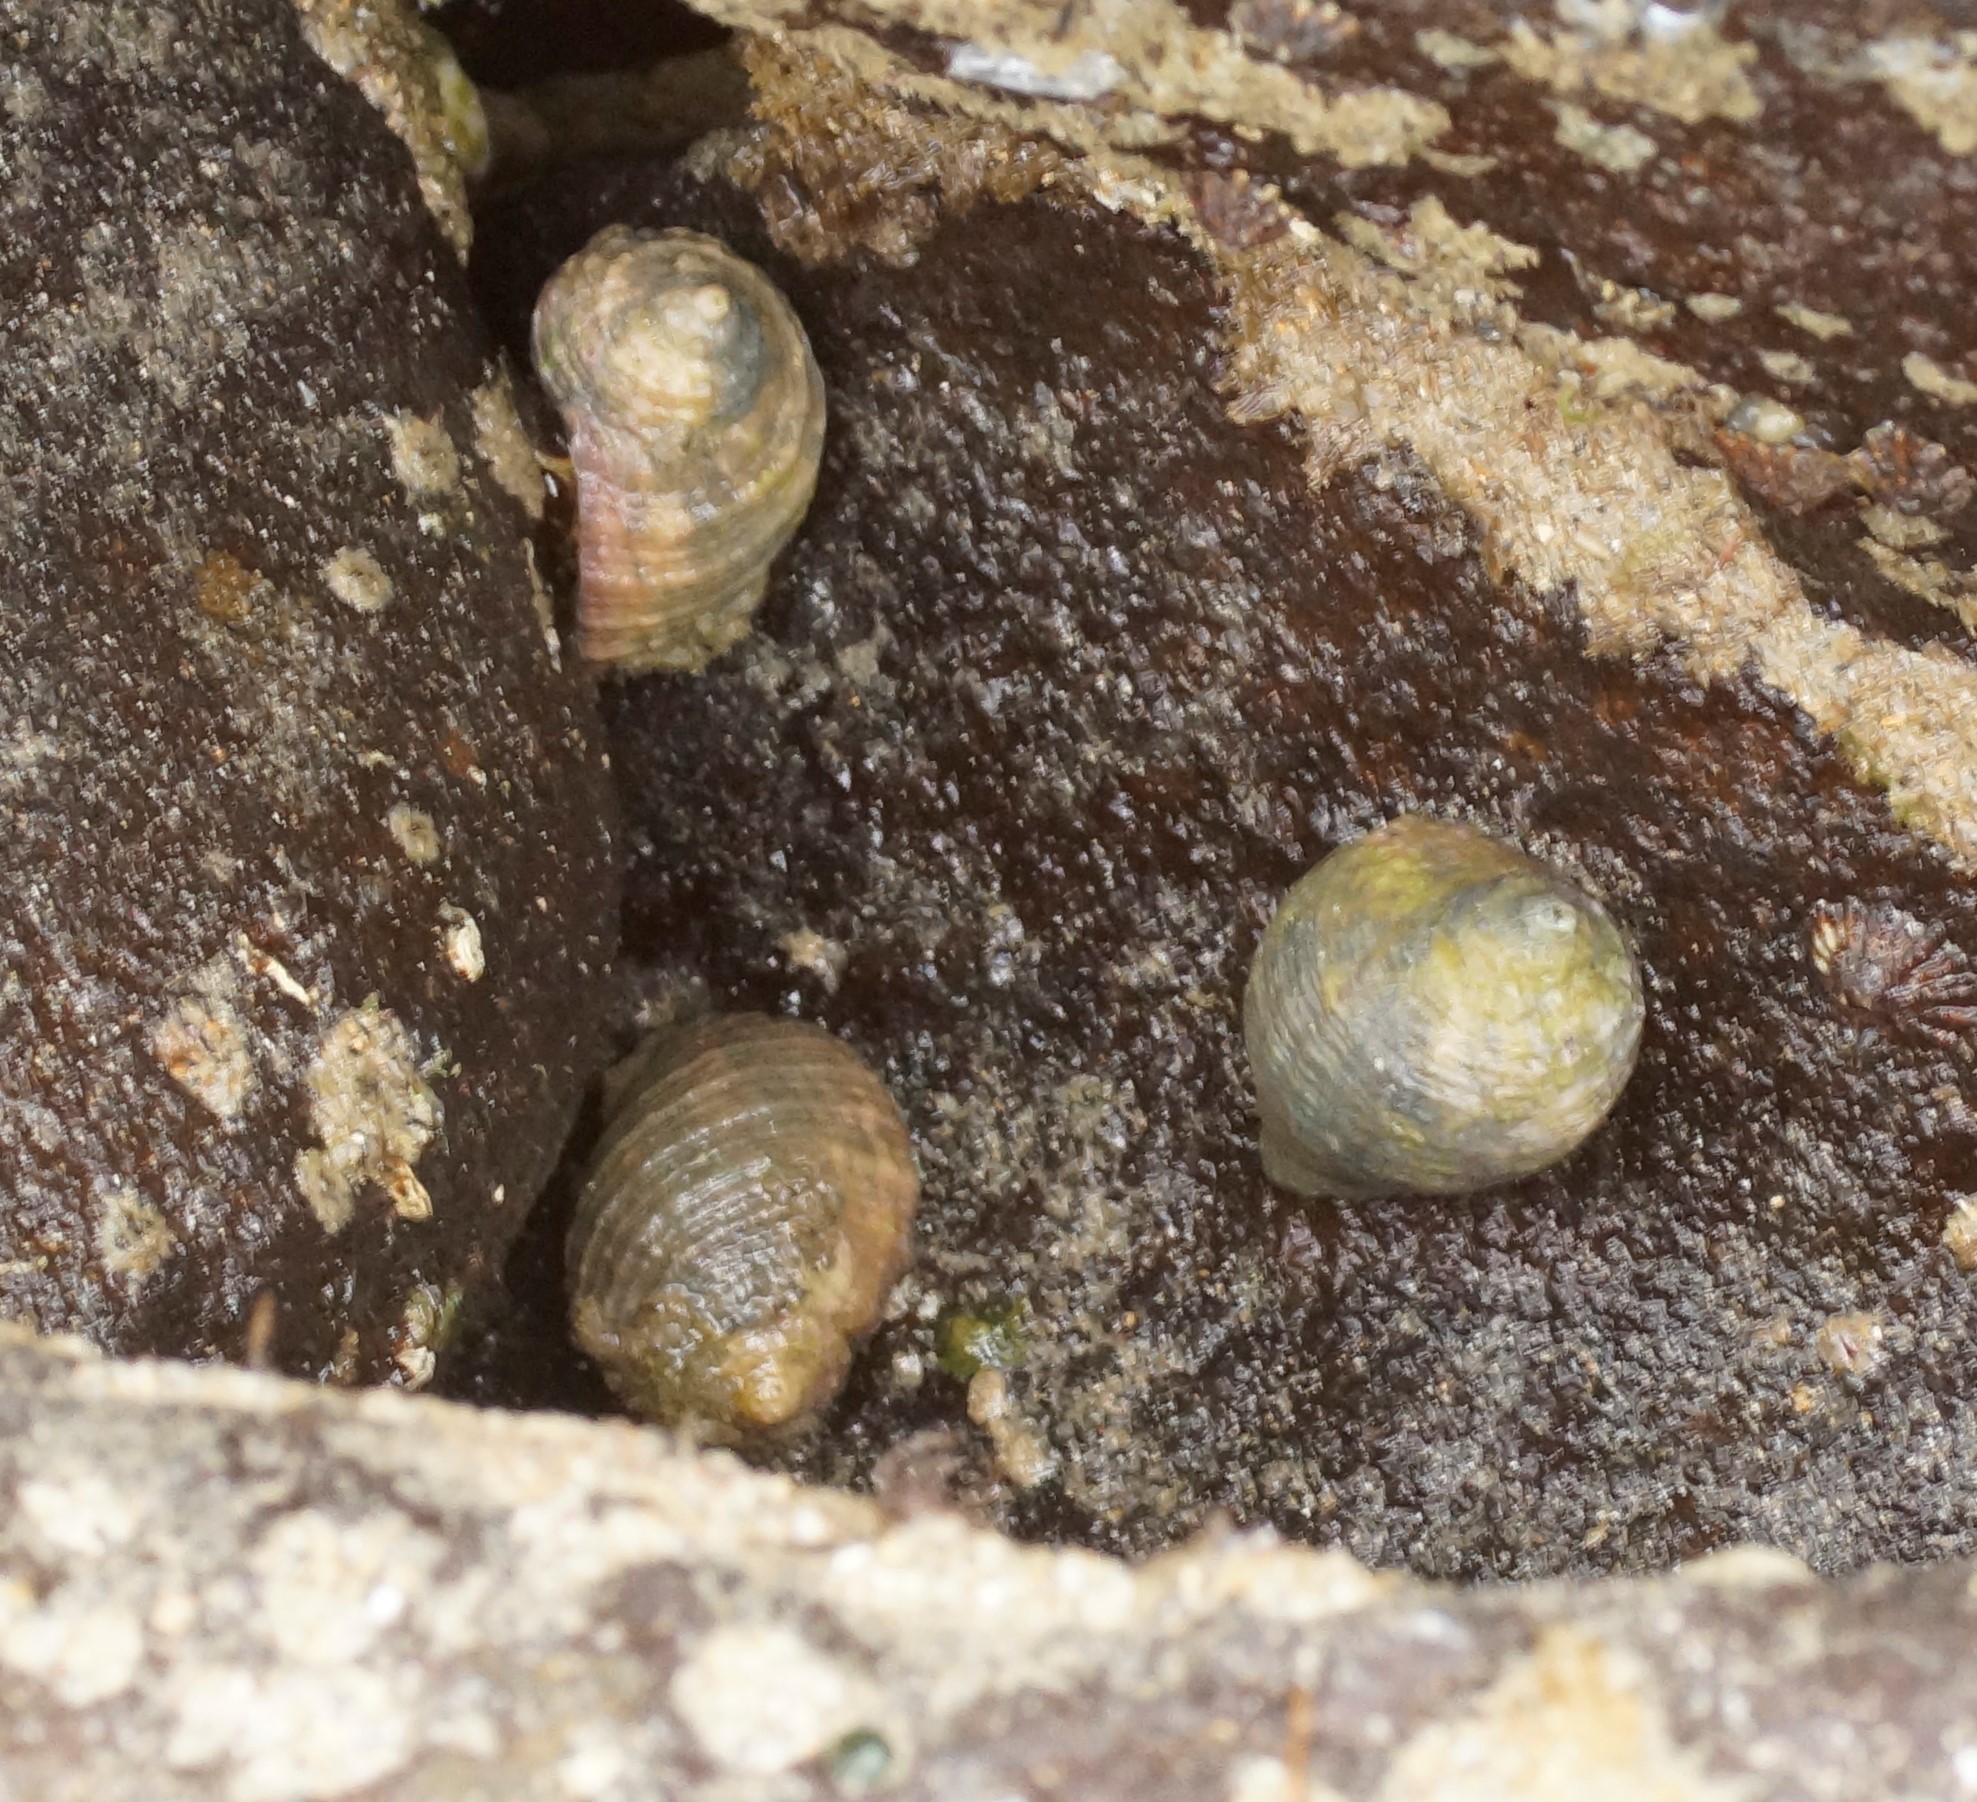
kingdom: Animalia
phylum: Mollusca
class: Gastropoda
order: Neogastropoda
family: Muricidae
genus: Dicathais
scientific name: Dicathais orbita
